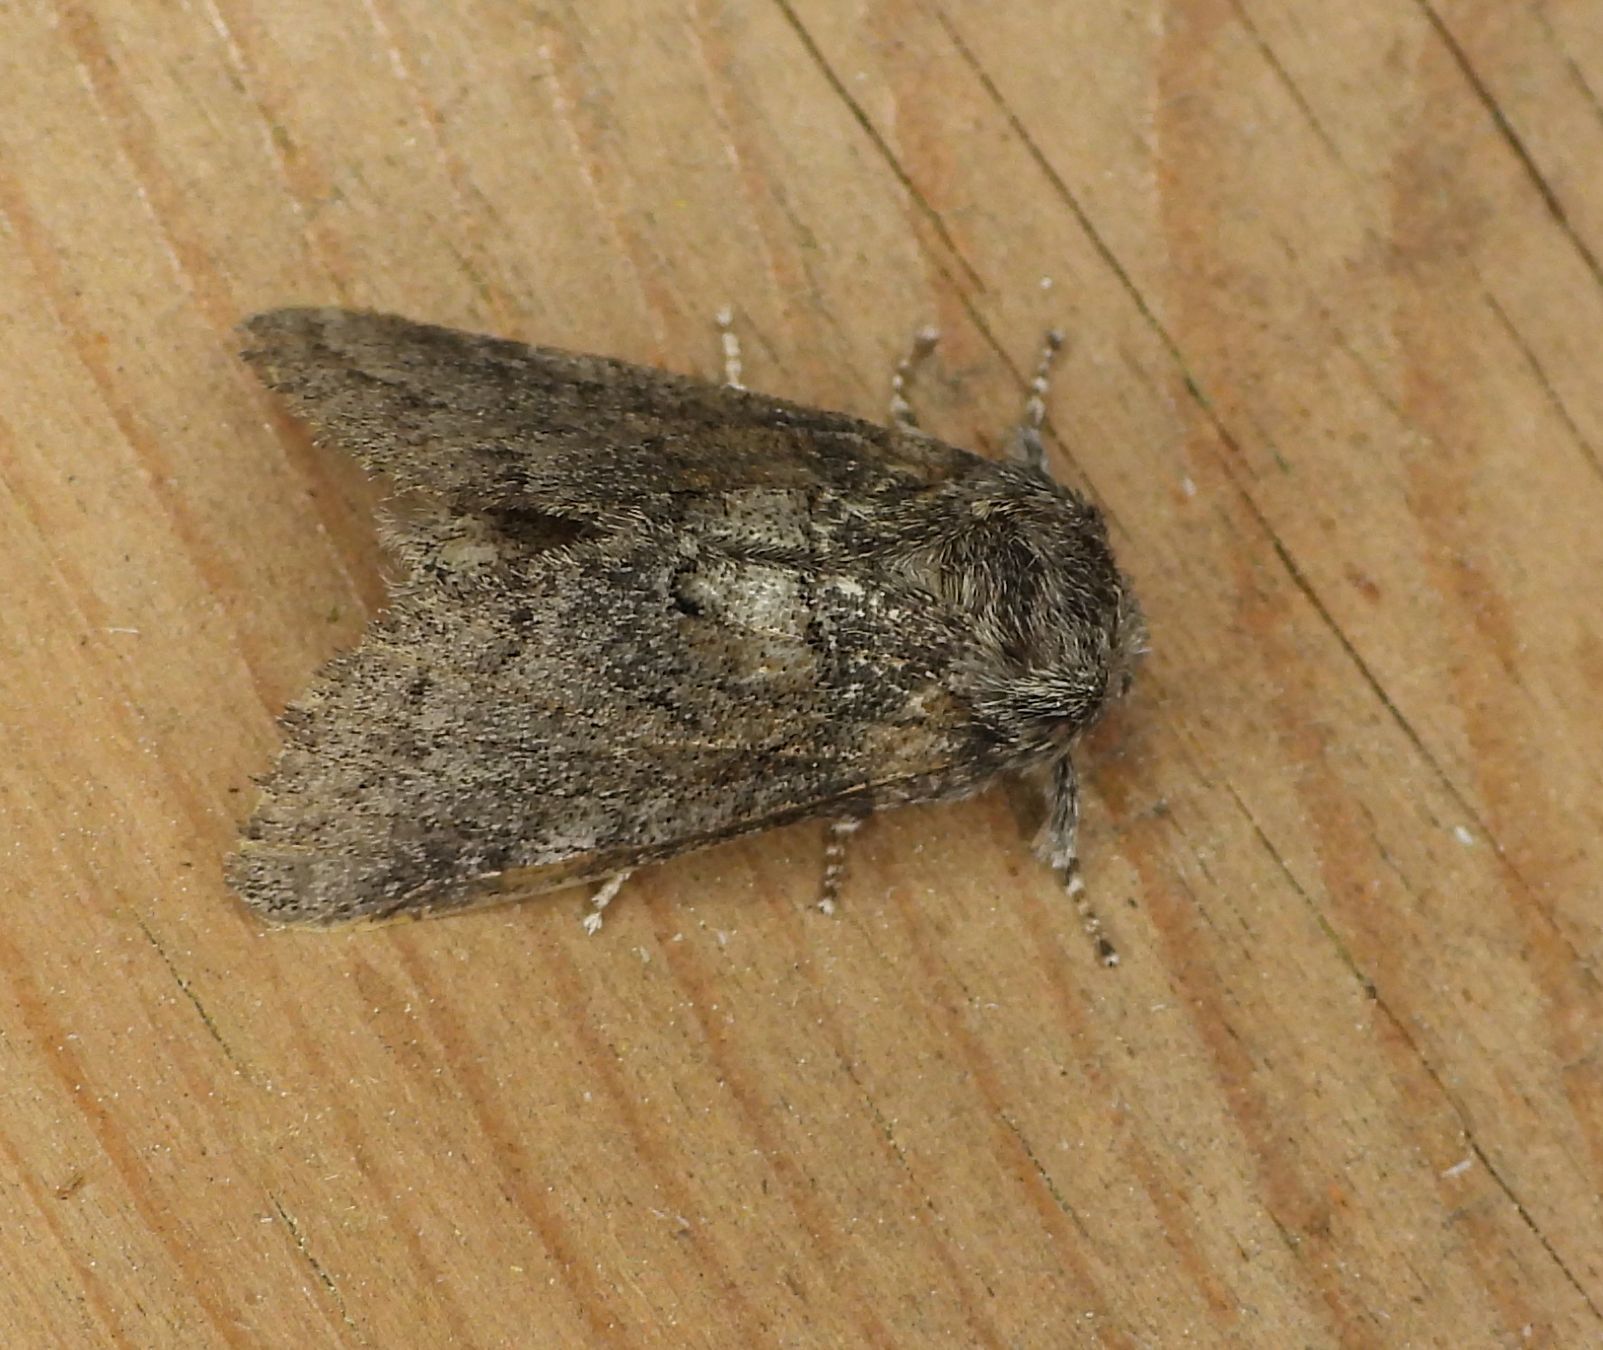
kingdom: Animalia
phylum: Arthropoda
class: Insecta
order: Lepidoptera
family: Notodontidae
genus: Gluphisia
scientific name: Gluphisia septentrionis
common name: Common gluphisia
